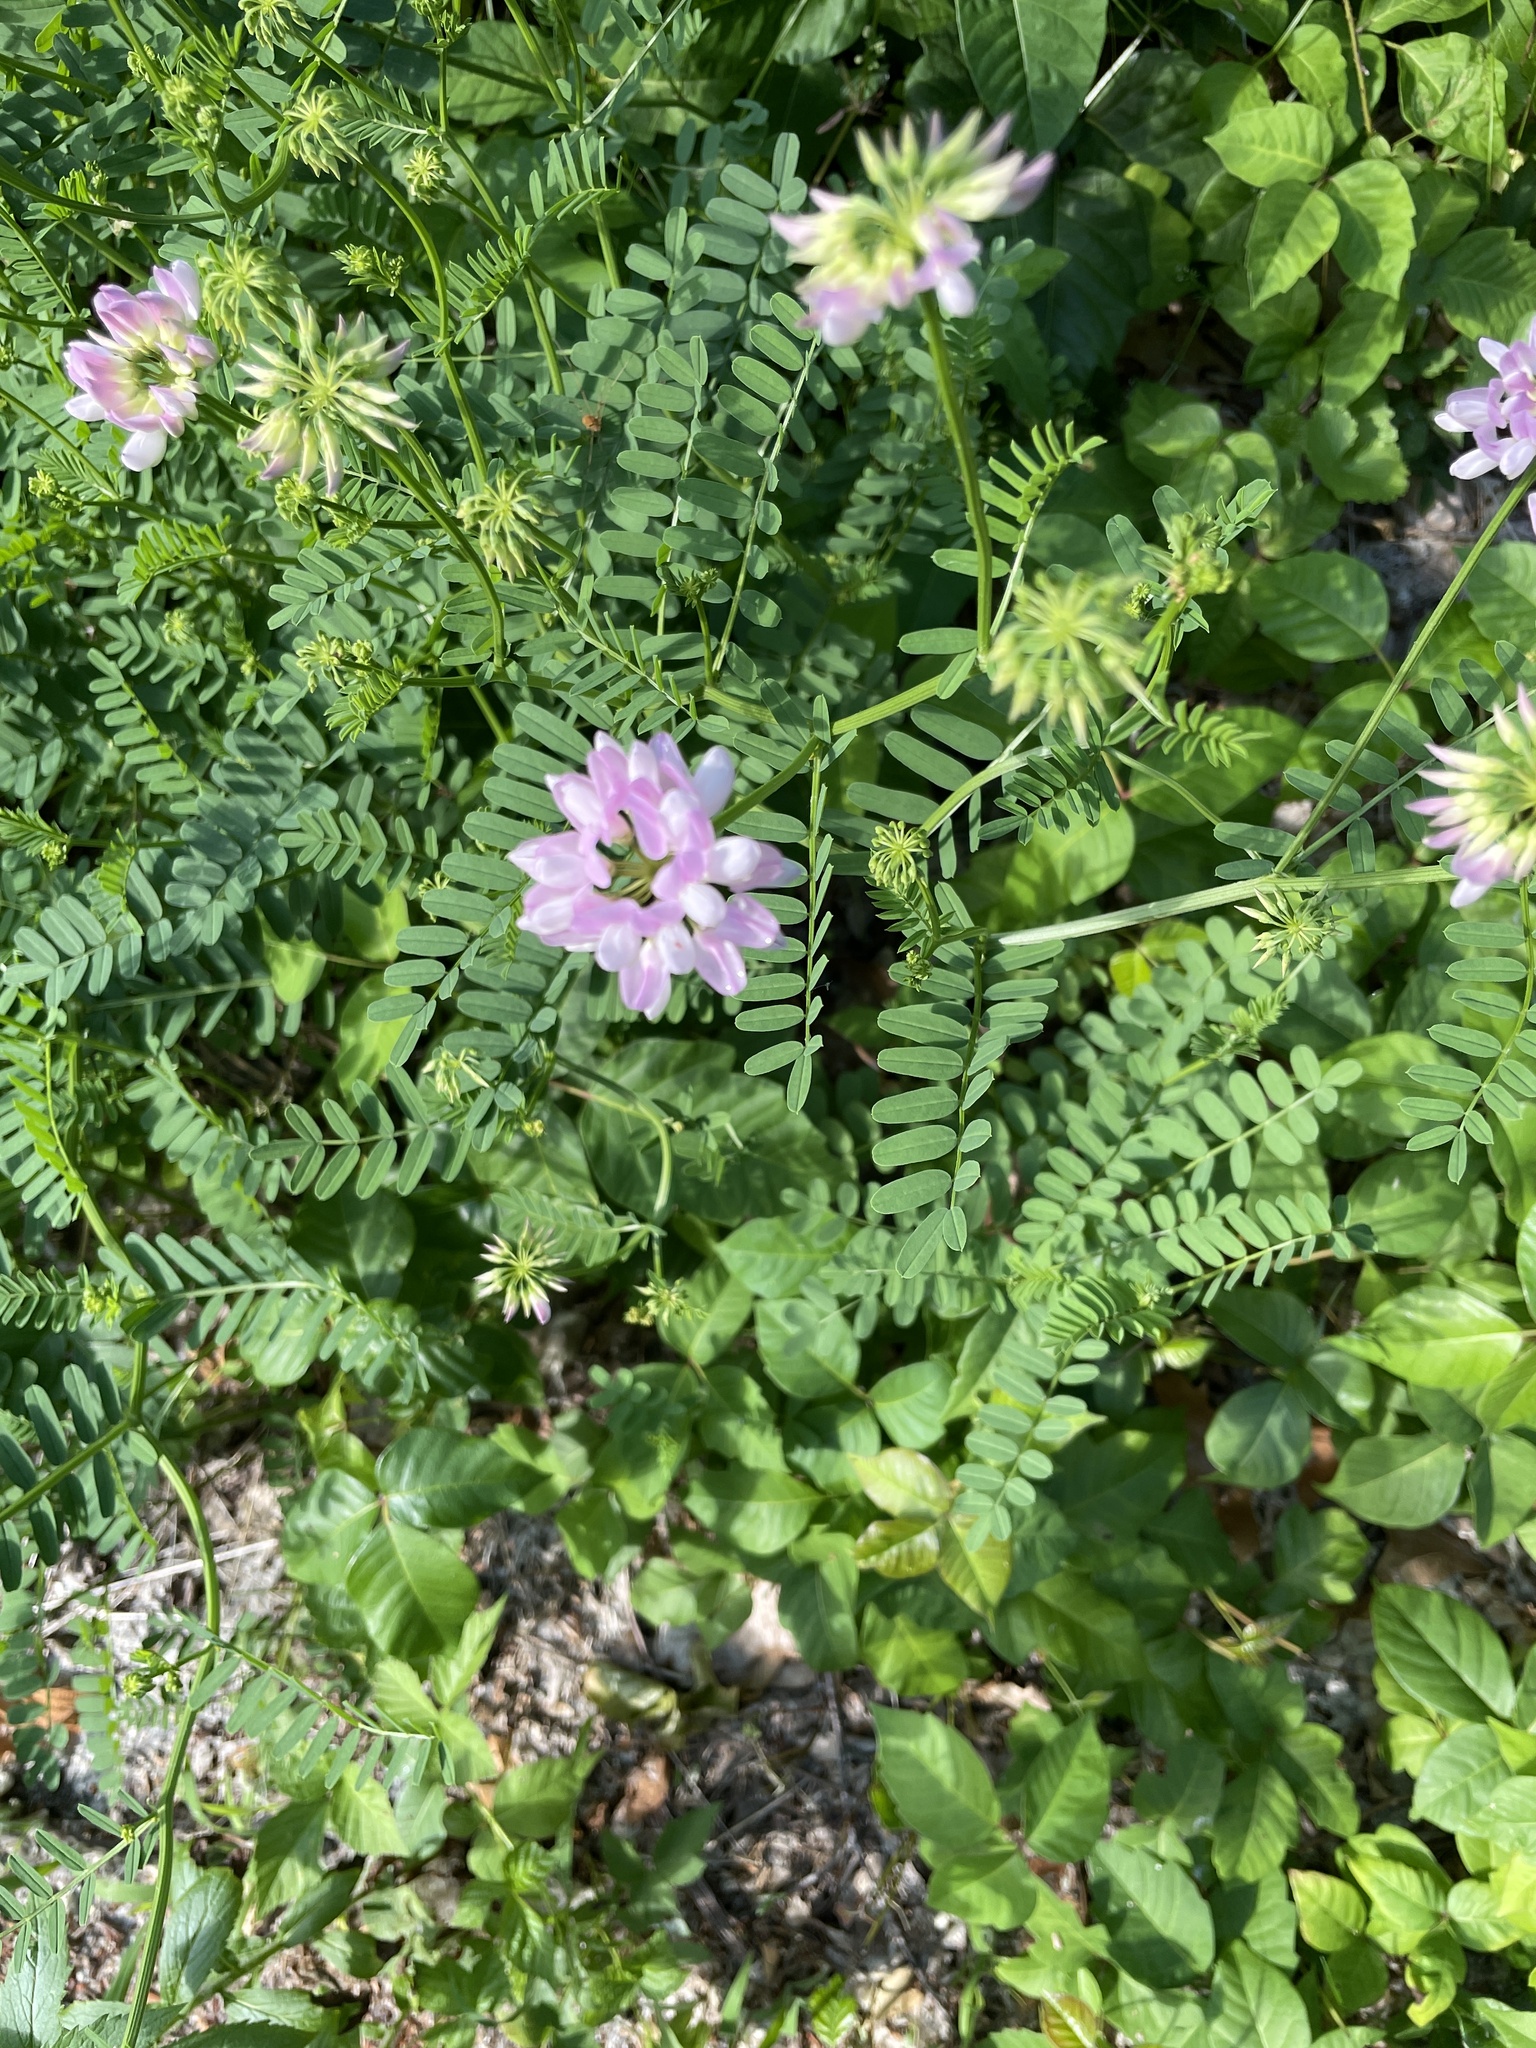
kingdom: Plantae
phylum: Tracheophyta
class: Magnoliopsida
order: Fabales
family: Fabaceae
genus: Coronilla
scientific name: Coronilla varia
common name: Crownvetch
